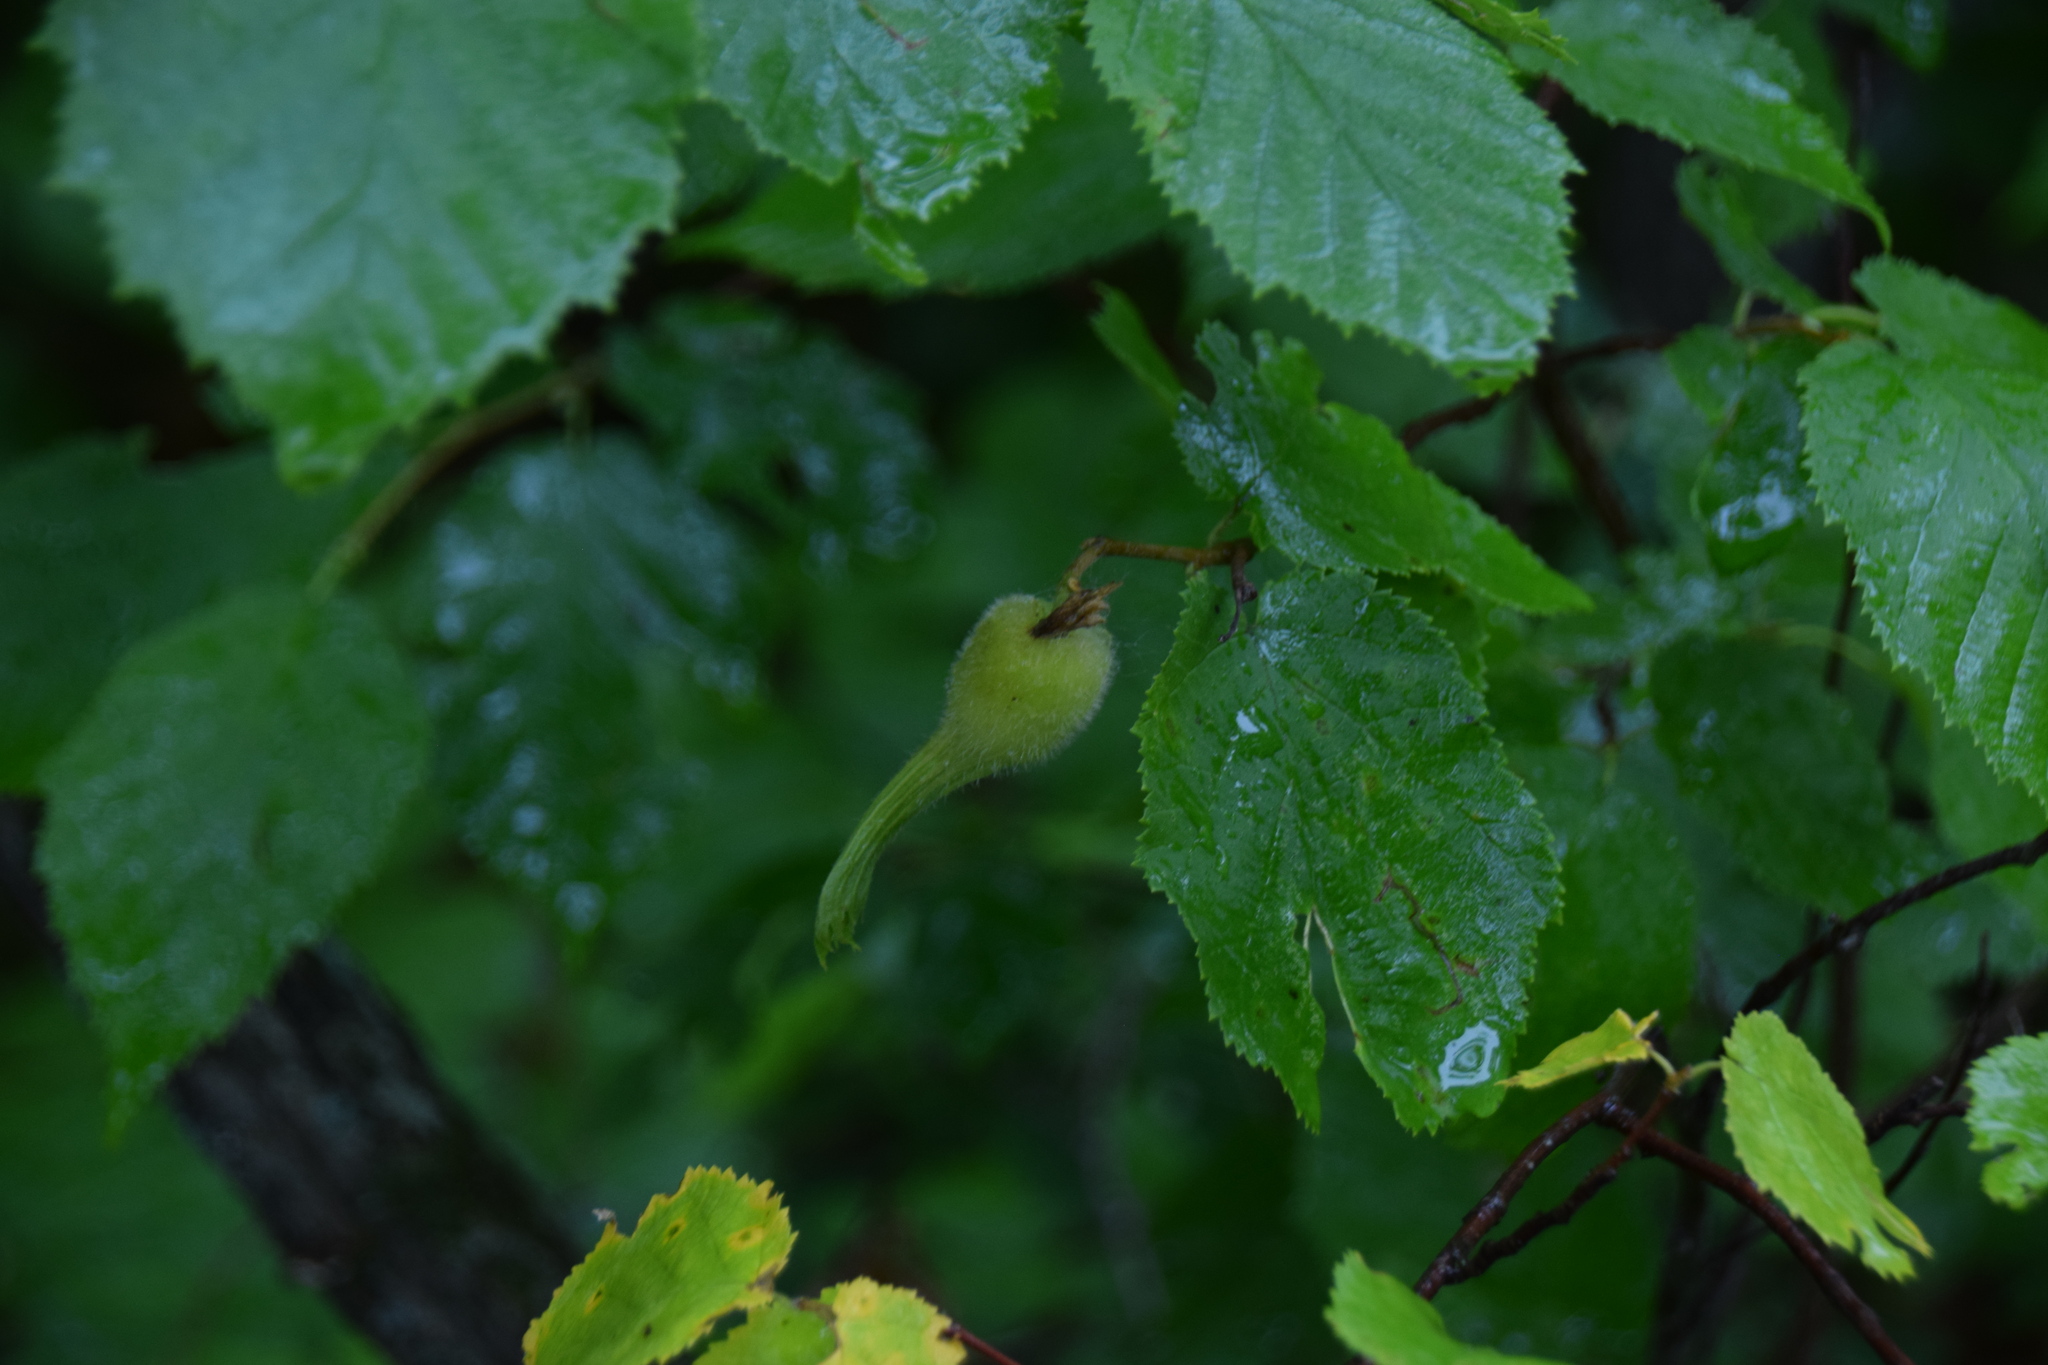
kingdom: Plantae
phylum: Tracheophyta
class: Magnoliopsida
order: Fagales
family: Betulaceae
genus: Corylus
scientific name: Corylus cornuta
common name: Beaked hazel
